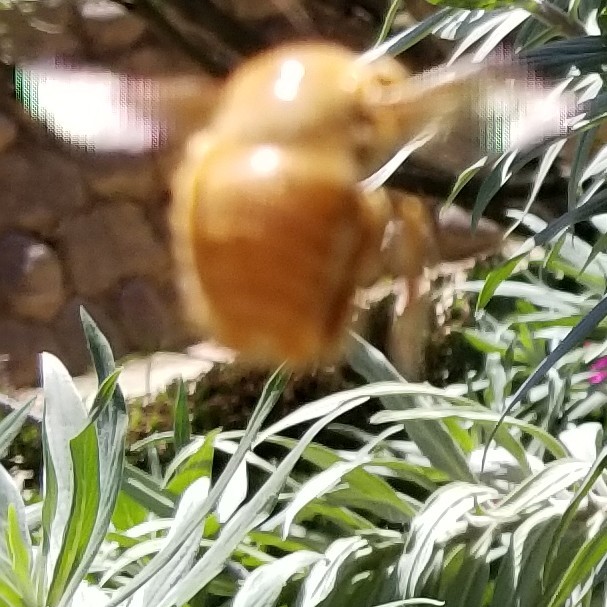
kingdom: Animalia
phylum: Arthropoda
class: Insecta
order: Hymenoptera
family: Apidae
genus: Xylocopa
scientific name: Xylocopa sonorina
